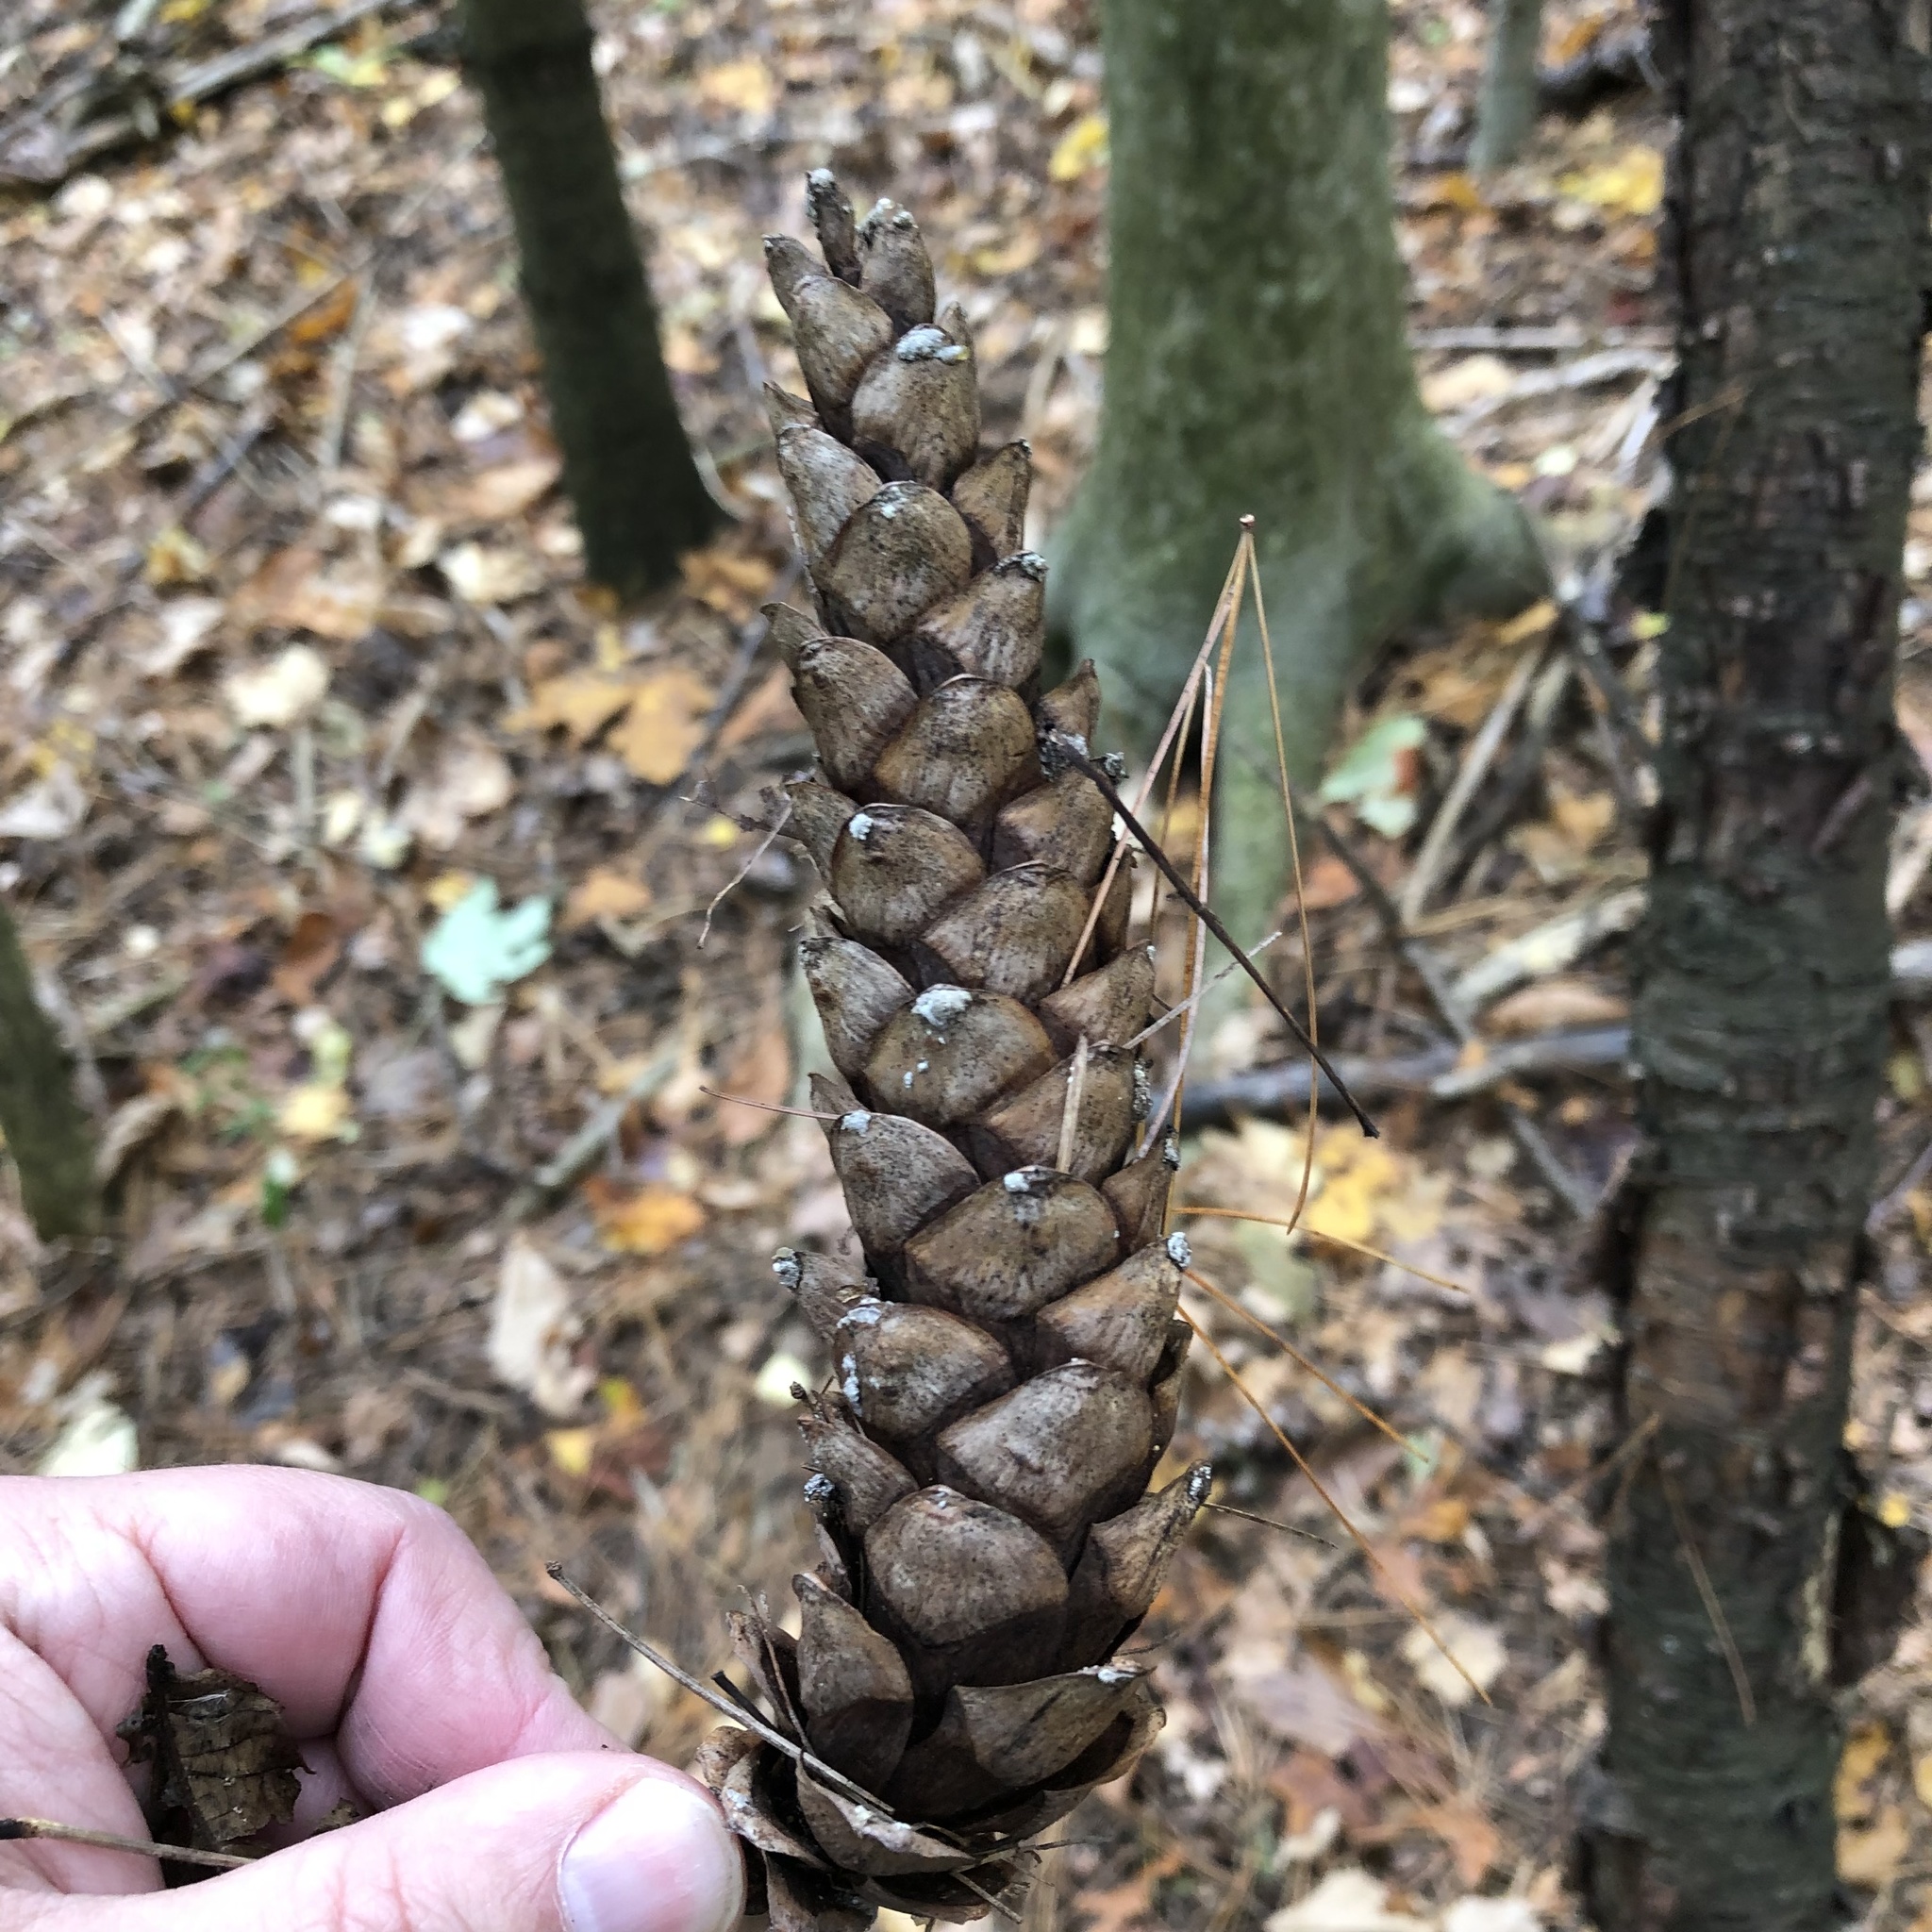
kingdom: Plantae
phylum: Tracheophyta
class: Pinopsida
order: Pinales
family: Pinaceae
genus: Pinus
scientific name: Pinus strobus
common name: Weymouth pine
